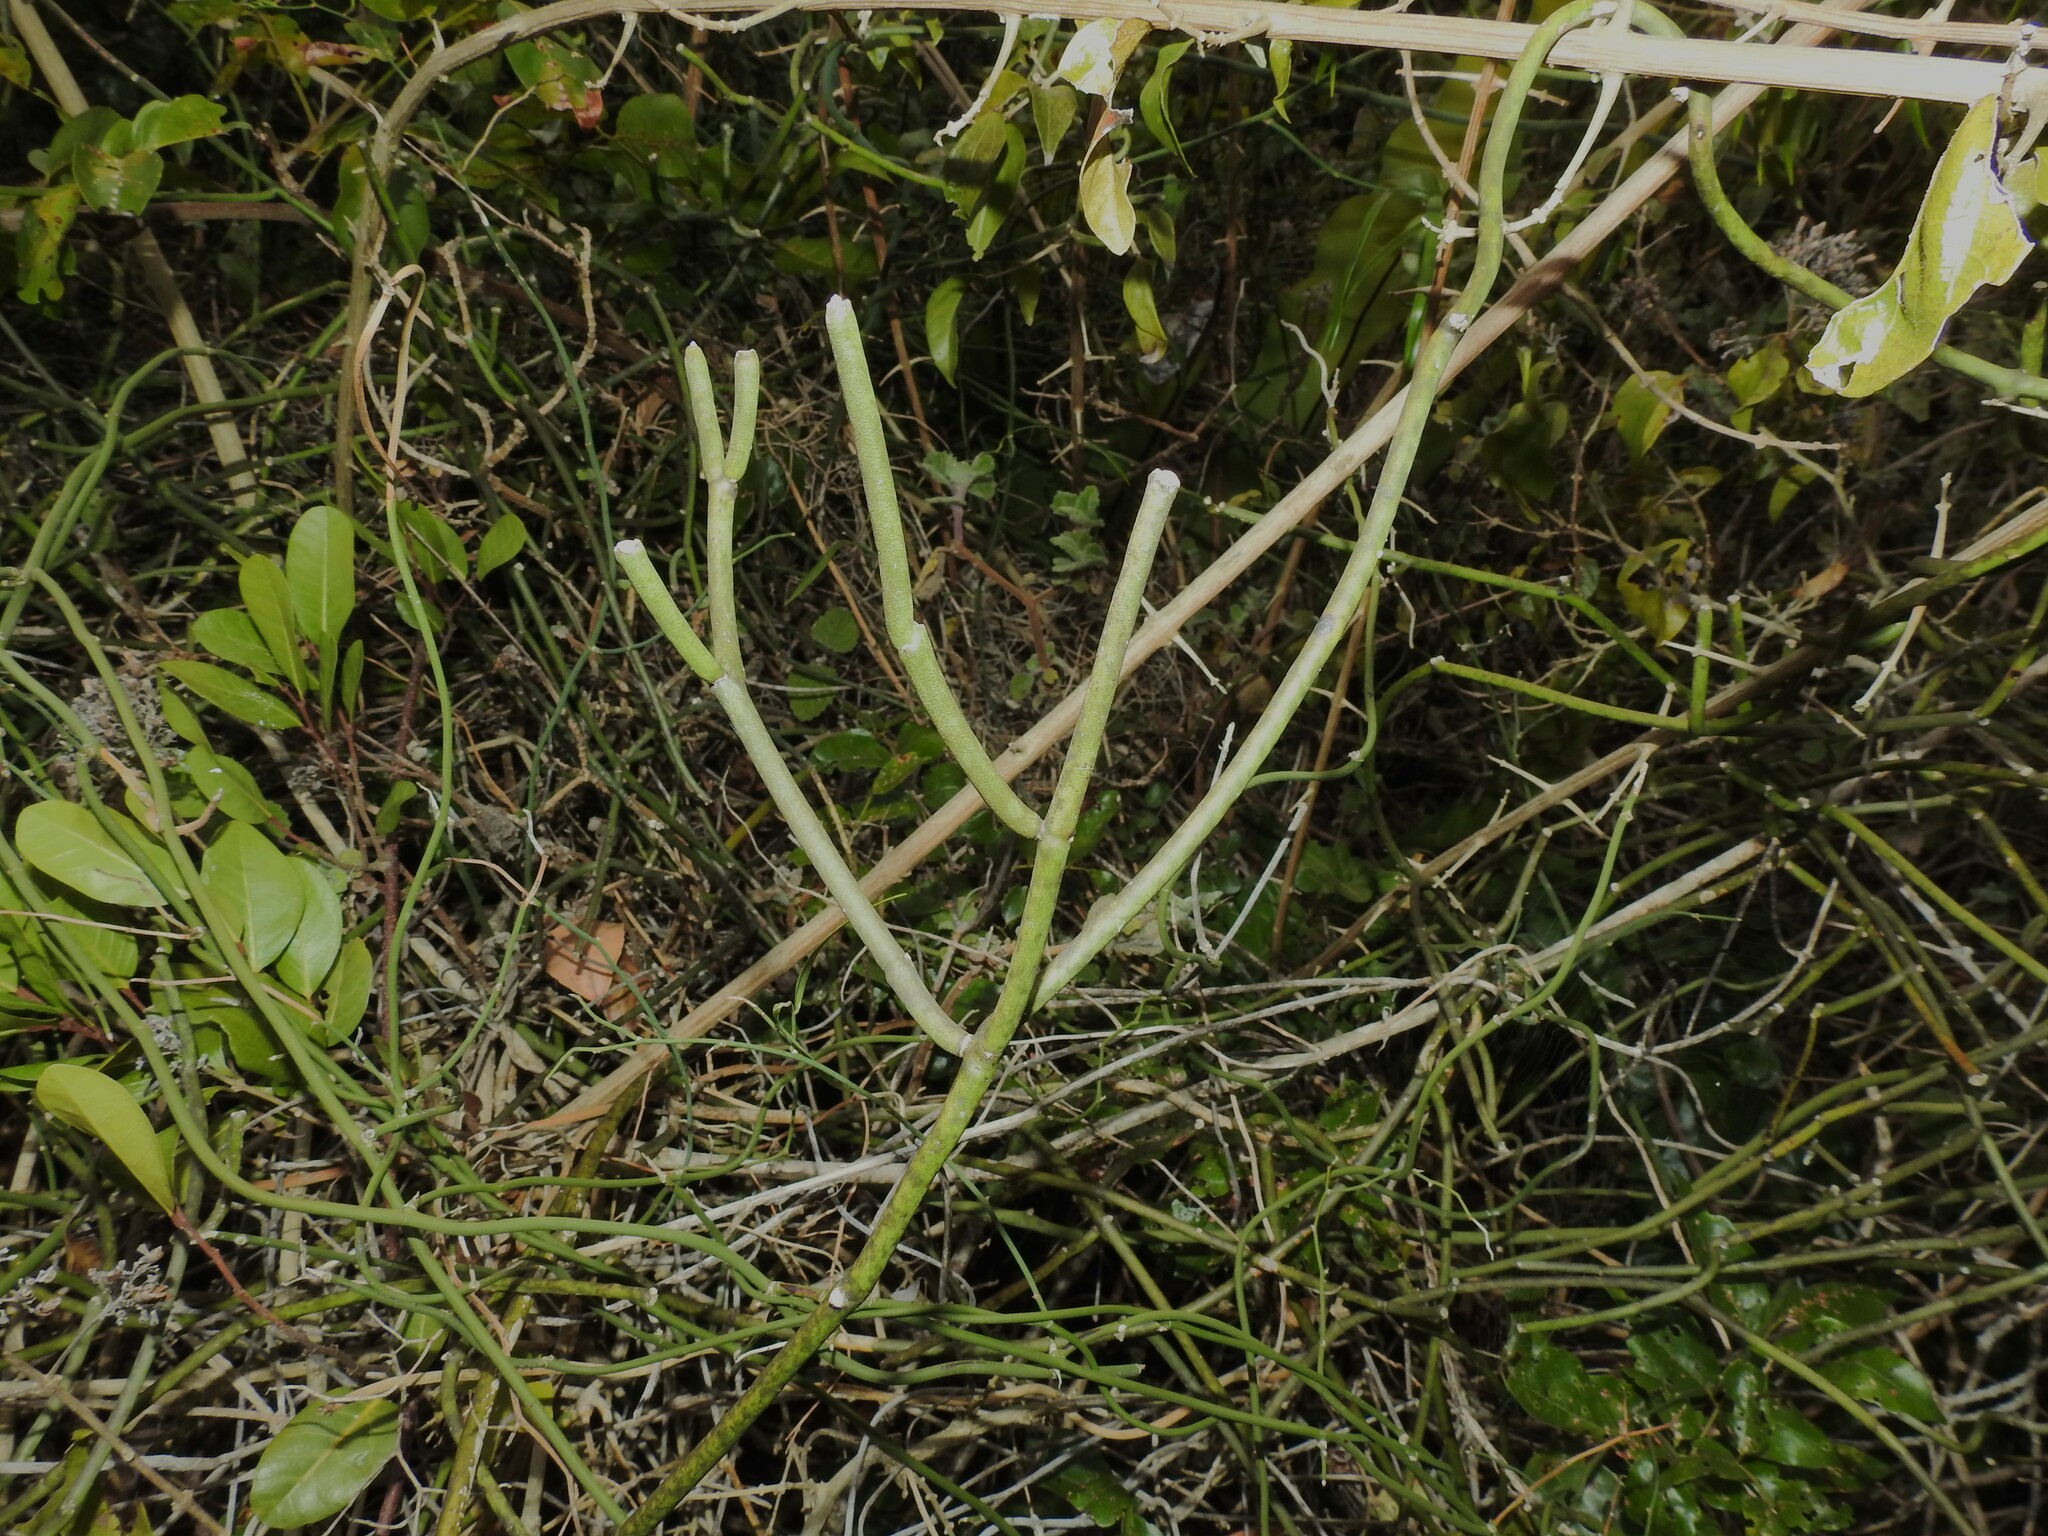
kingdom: Plantae
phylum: Tracheophyta
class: Magnoliopsida
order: Gentianales
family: Apocynaceae
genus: Cynanchum
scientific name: Cynanchum viminale
